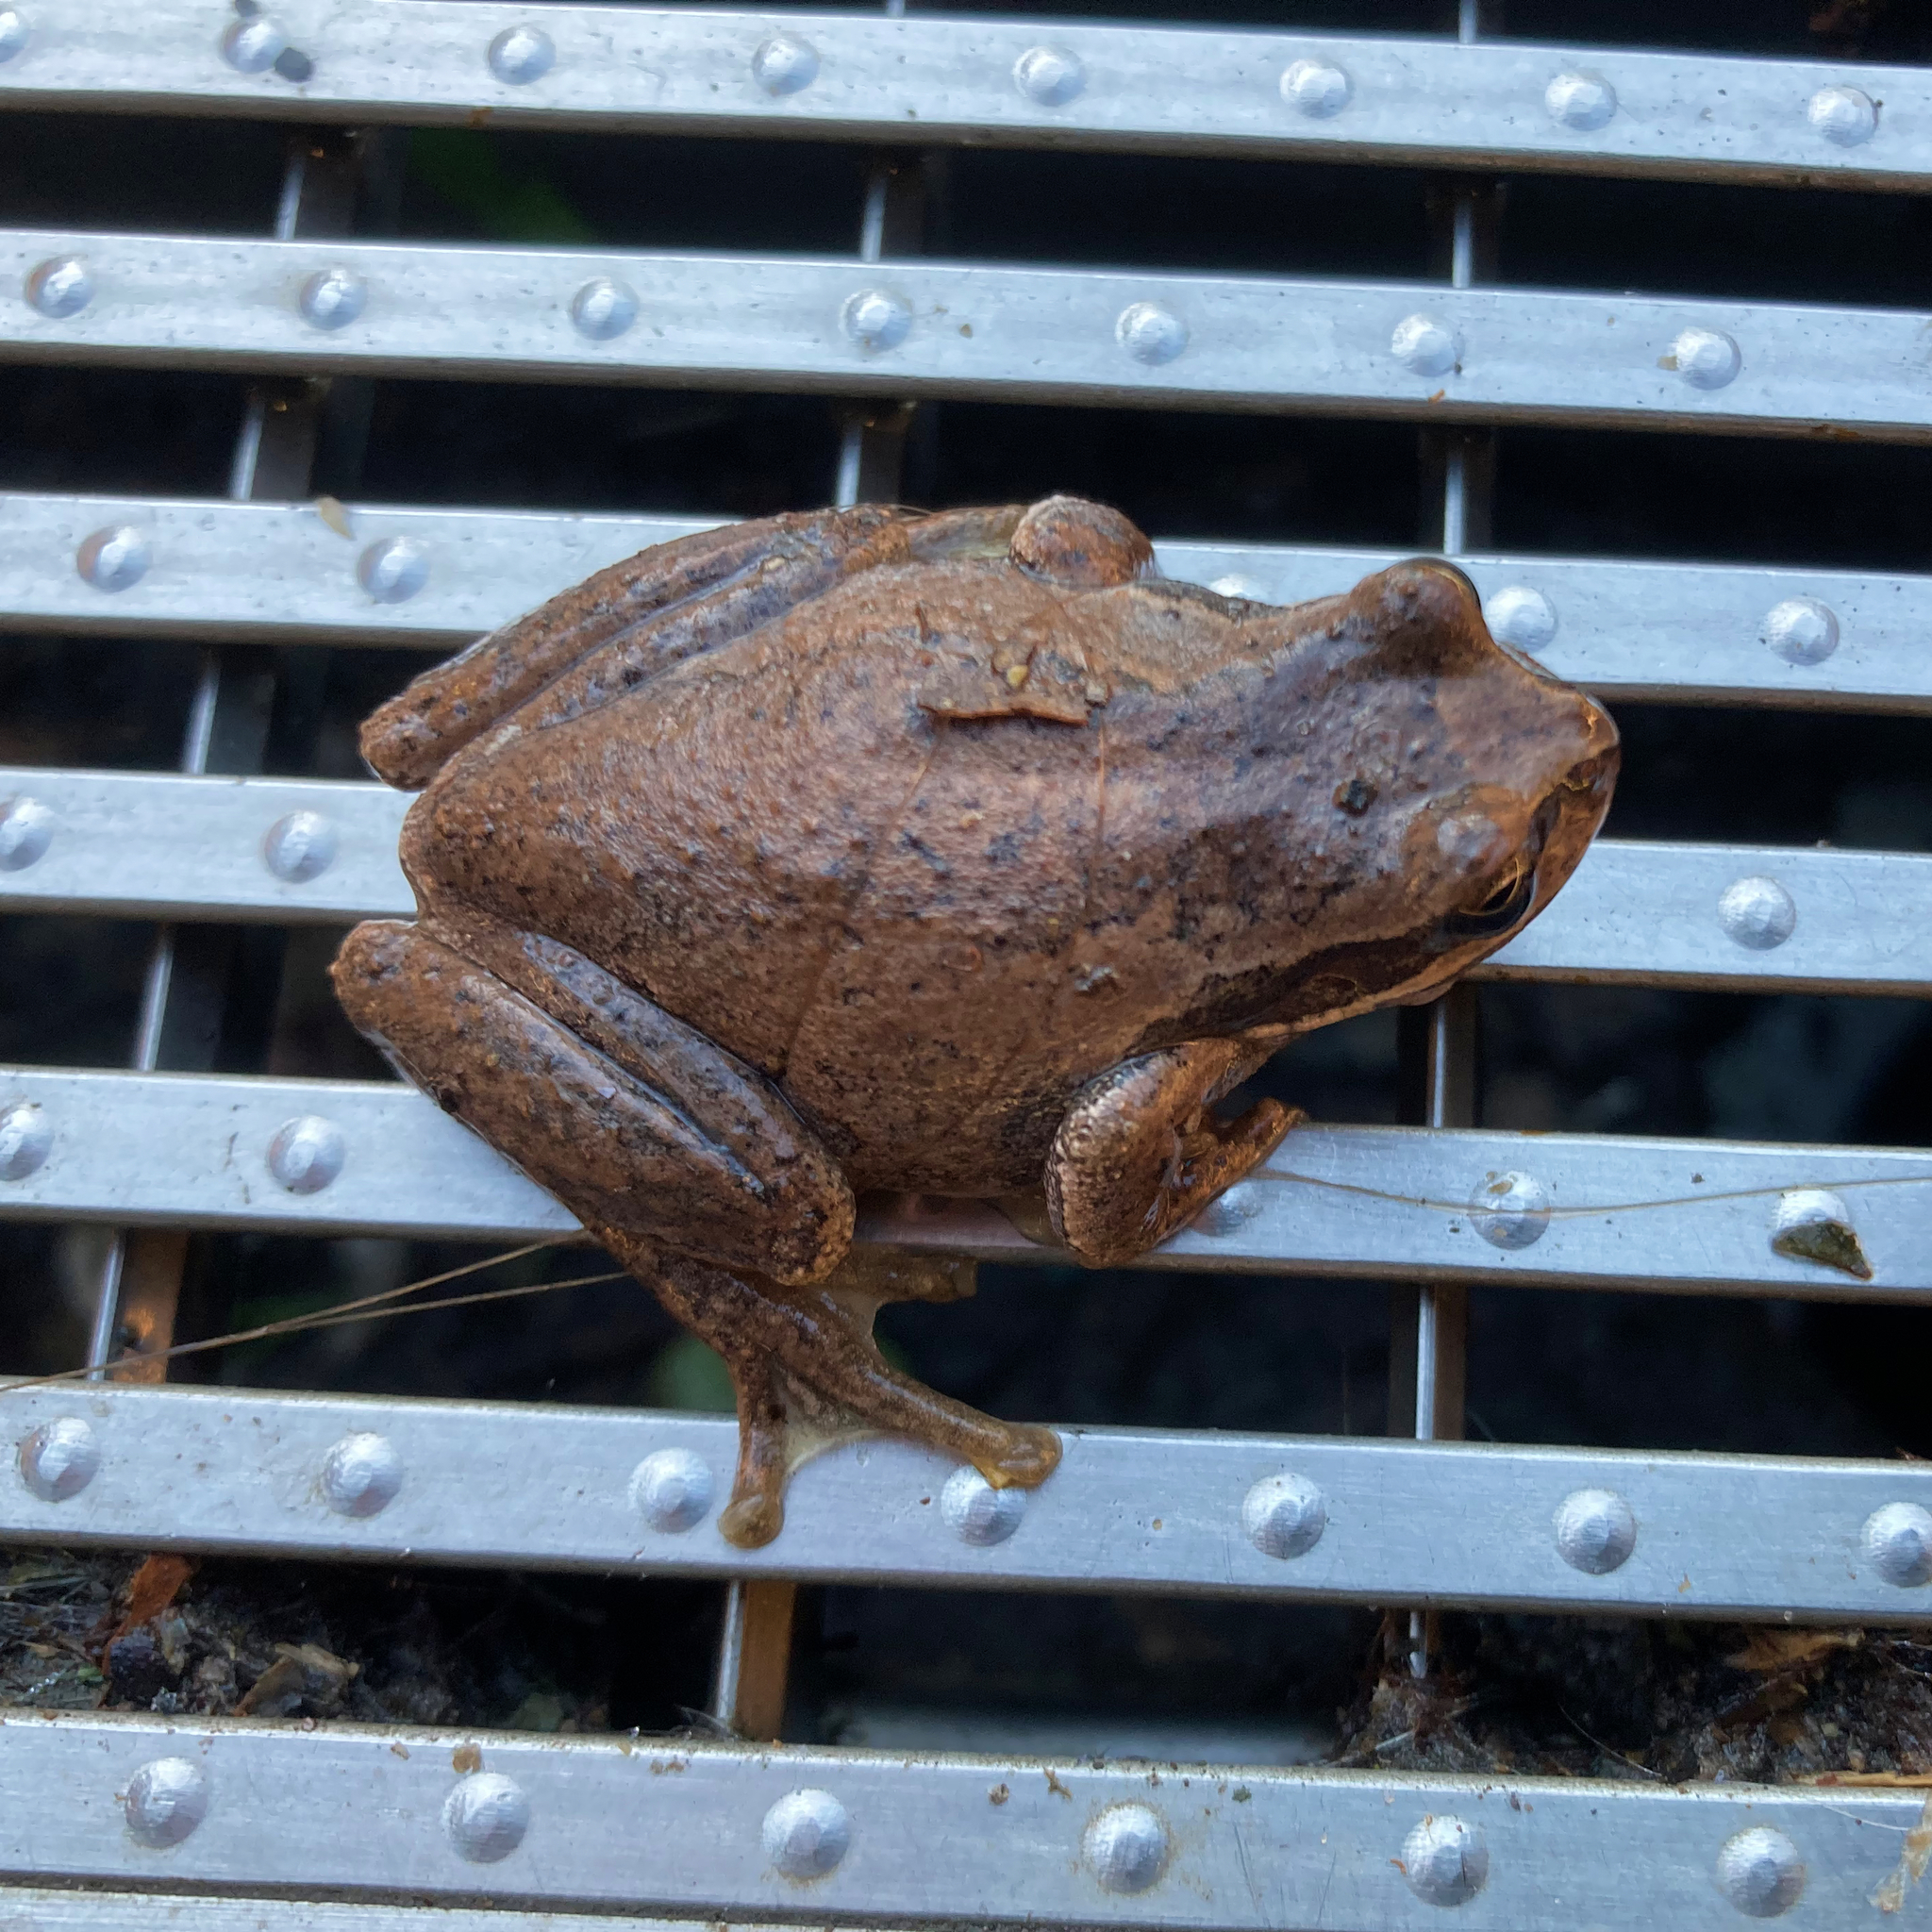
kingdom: Animalia
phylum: Chordata
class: Amphibia
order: Anura
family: Pelodryadidae
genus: Litoria
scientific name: Litoria ewingii
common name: Southern brown tree frog
